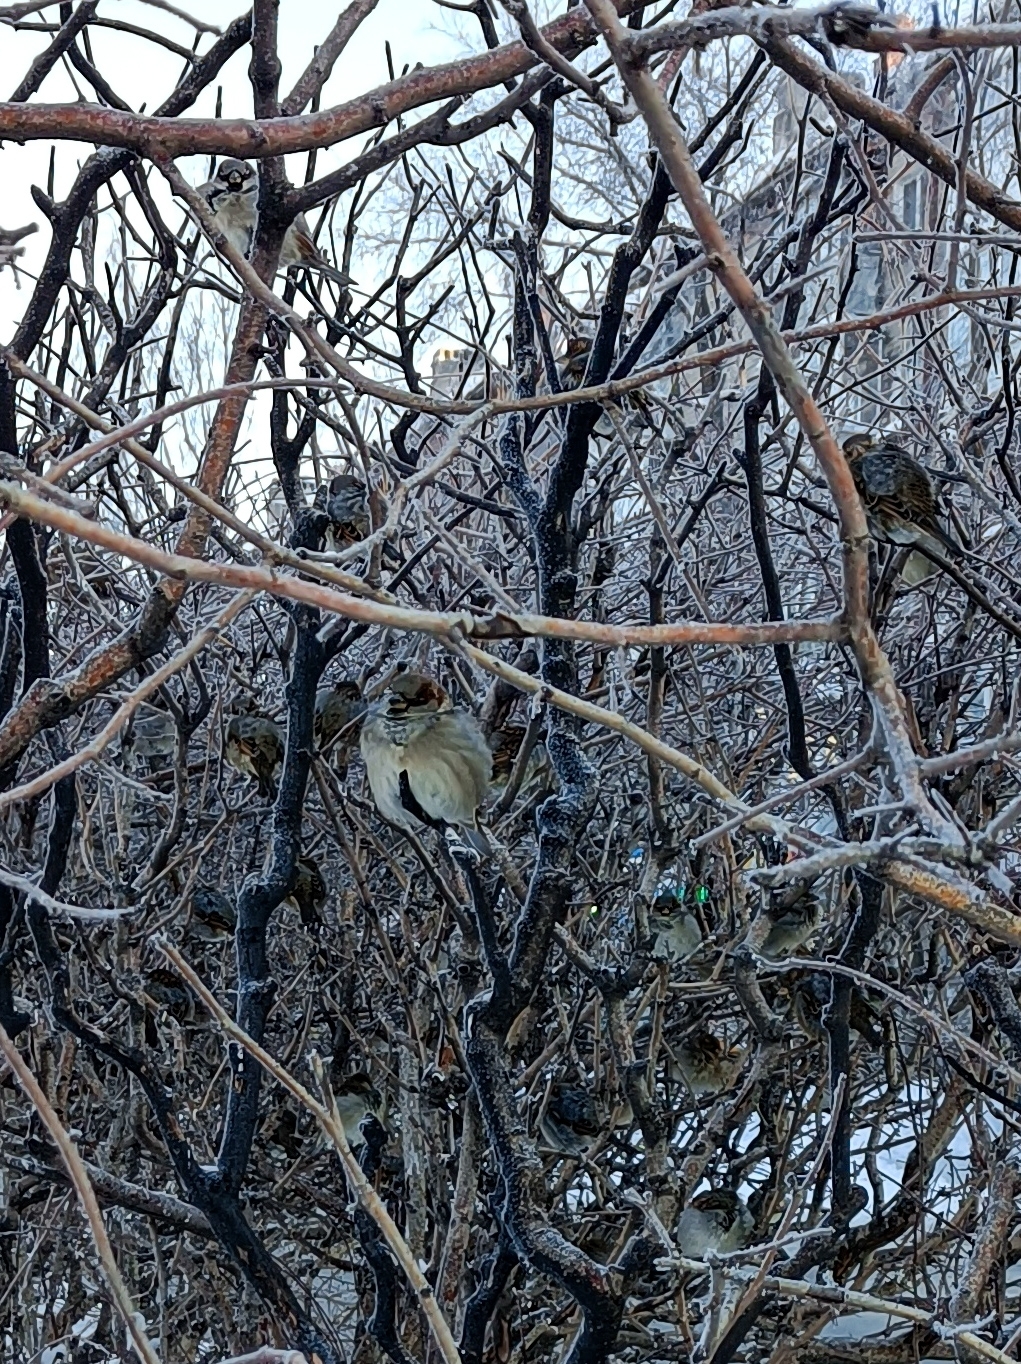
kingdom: Animalia
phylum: Chordata
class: Aves
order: Passeriformes
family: Passeridae
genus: Passer
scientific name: Passer domesticus
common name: House sparrow
